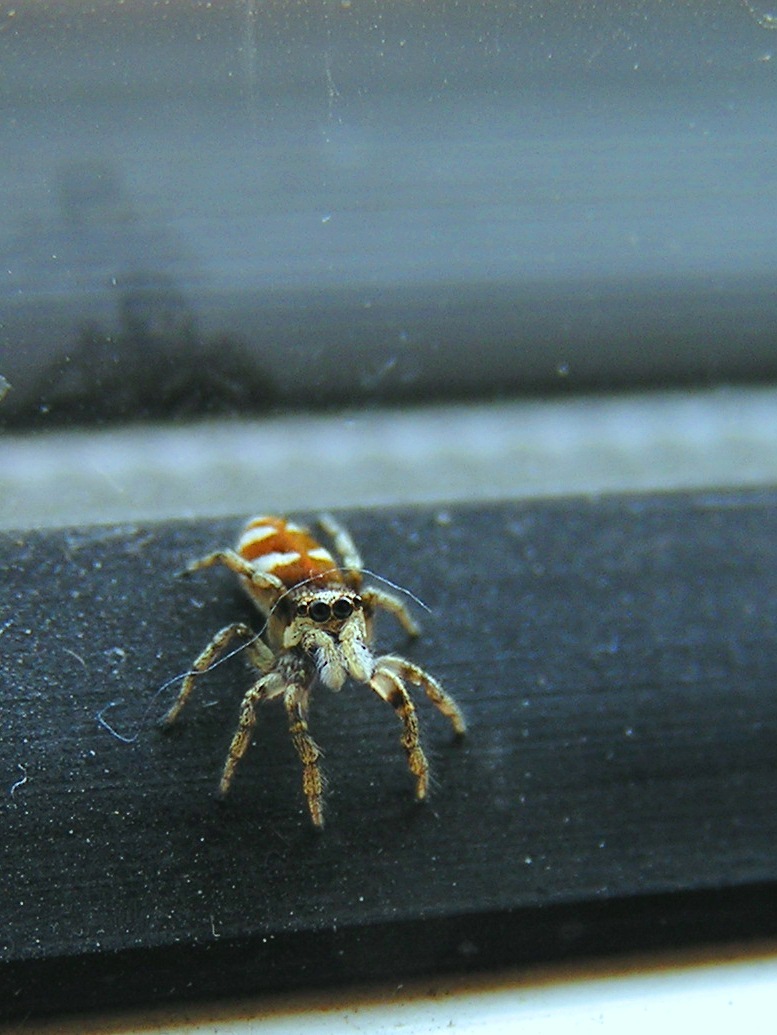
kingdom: Animalia
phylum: Arthropoda
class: Arachnida
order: Araneae
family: Salticidae
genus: Salticus
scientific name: Salticus scenicus
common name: Zebra jumper
